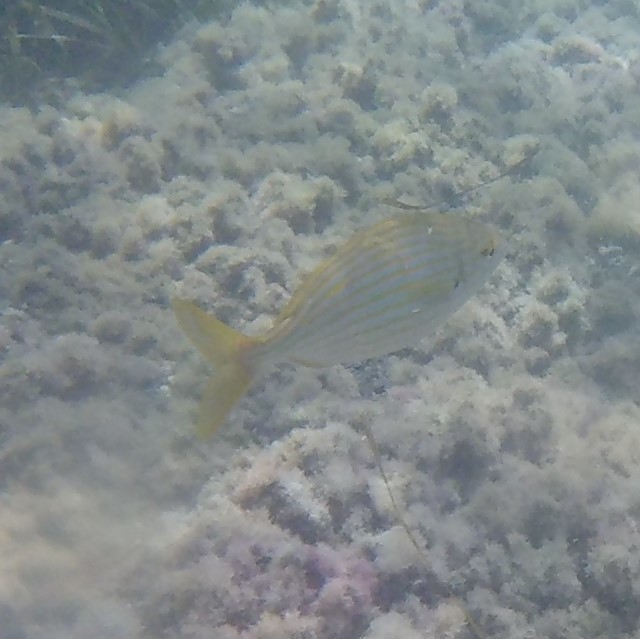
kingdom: Animalia
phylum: Chordata
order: Perciformes
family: Sparidae
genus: Sarpa
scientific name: Sarpa salpa
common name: Salema
